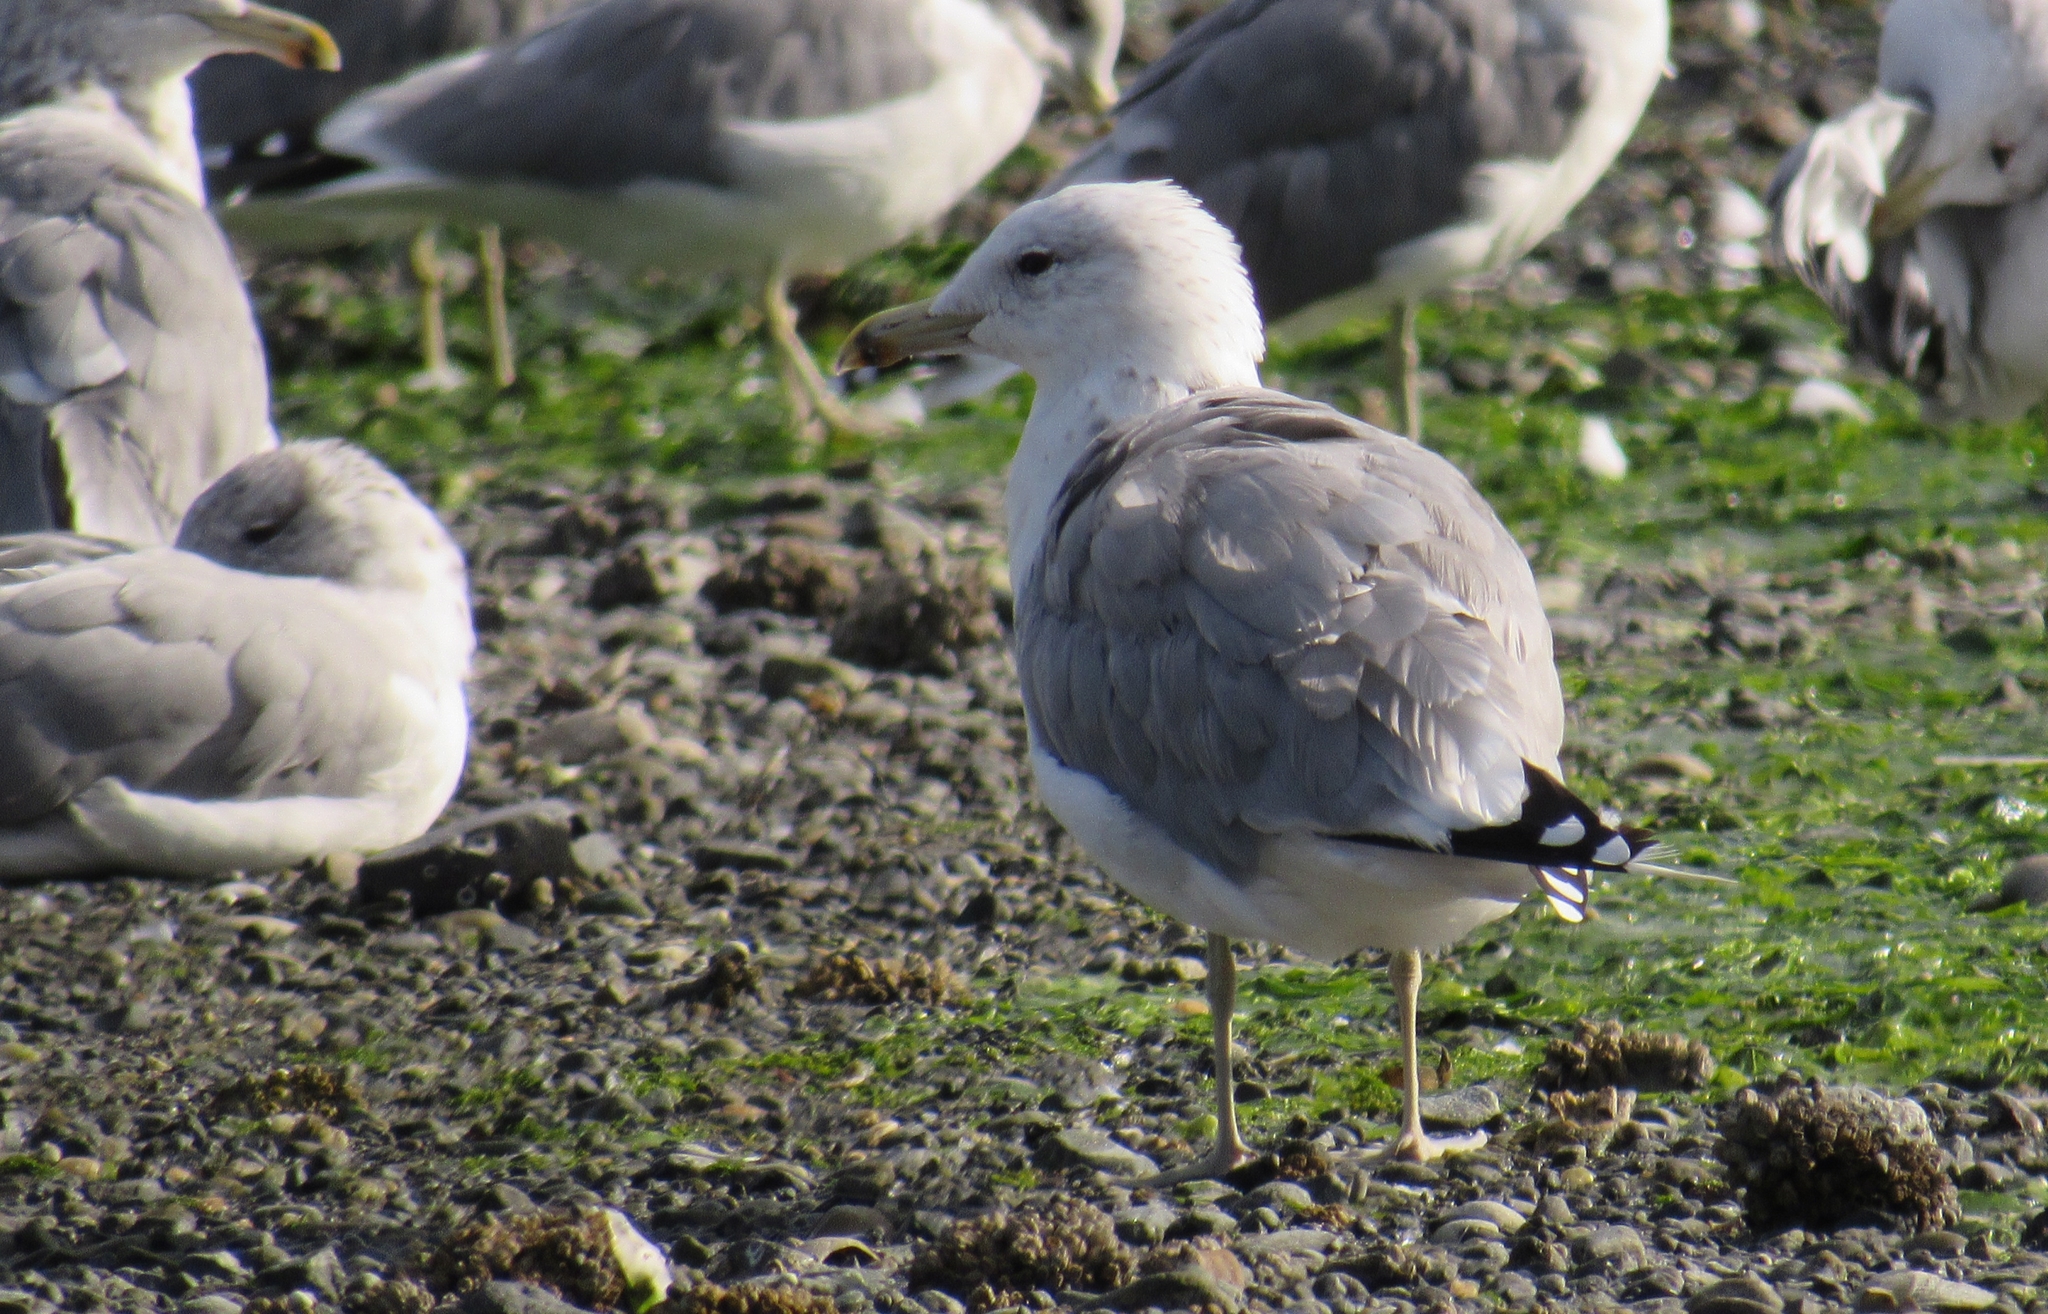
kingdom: Animalia
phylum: Chordata
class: Aves
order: Charadriiformes
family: Laridae
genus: Larus
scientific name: Larus californicus
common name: California gull
